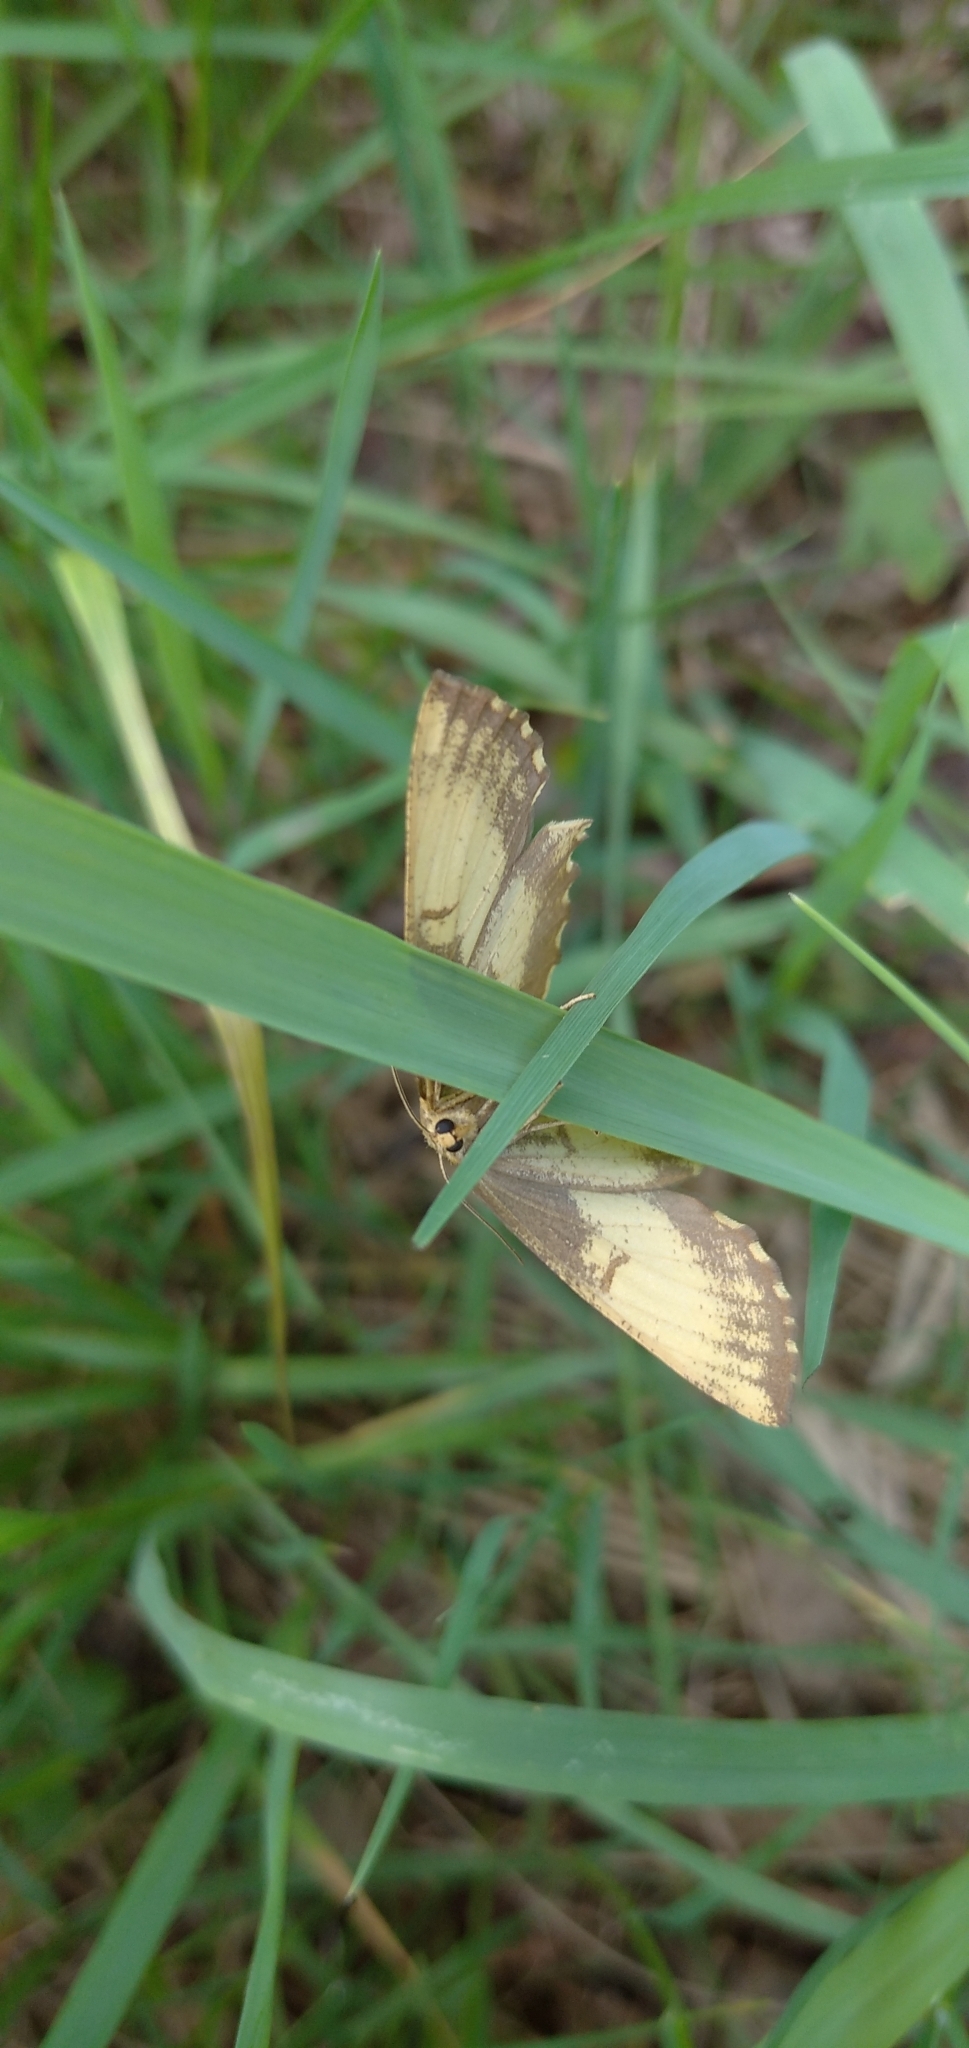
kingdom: Animalia
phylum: Arthropoda
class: Insecta
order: Lepidoptera
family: Geometridae
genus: Angerona
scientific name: Angerona prunaria
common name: Orange moth
